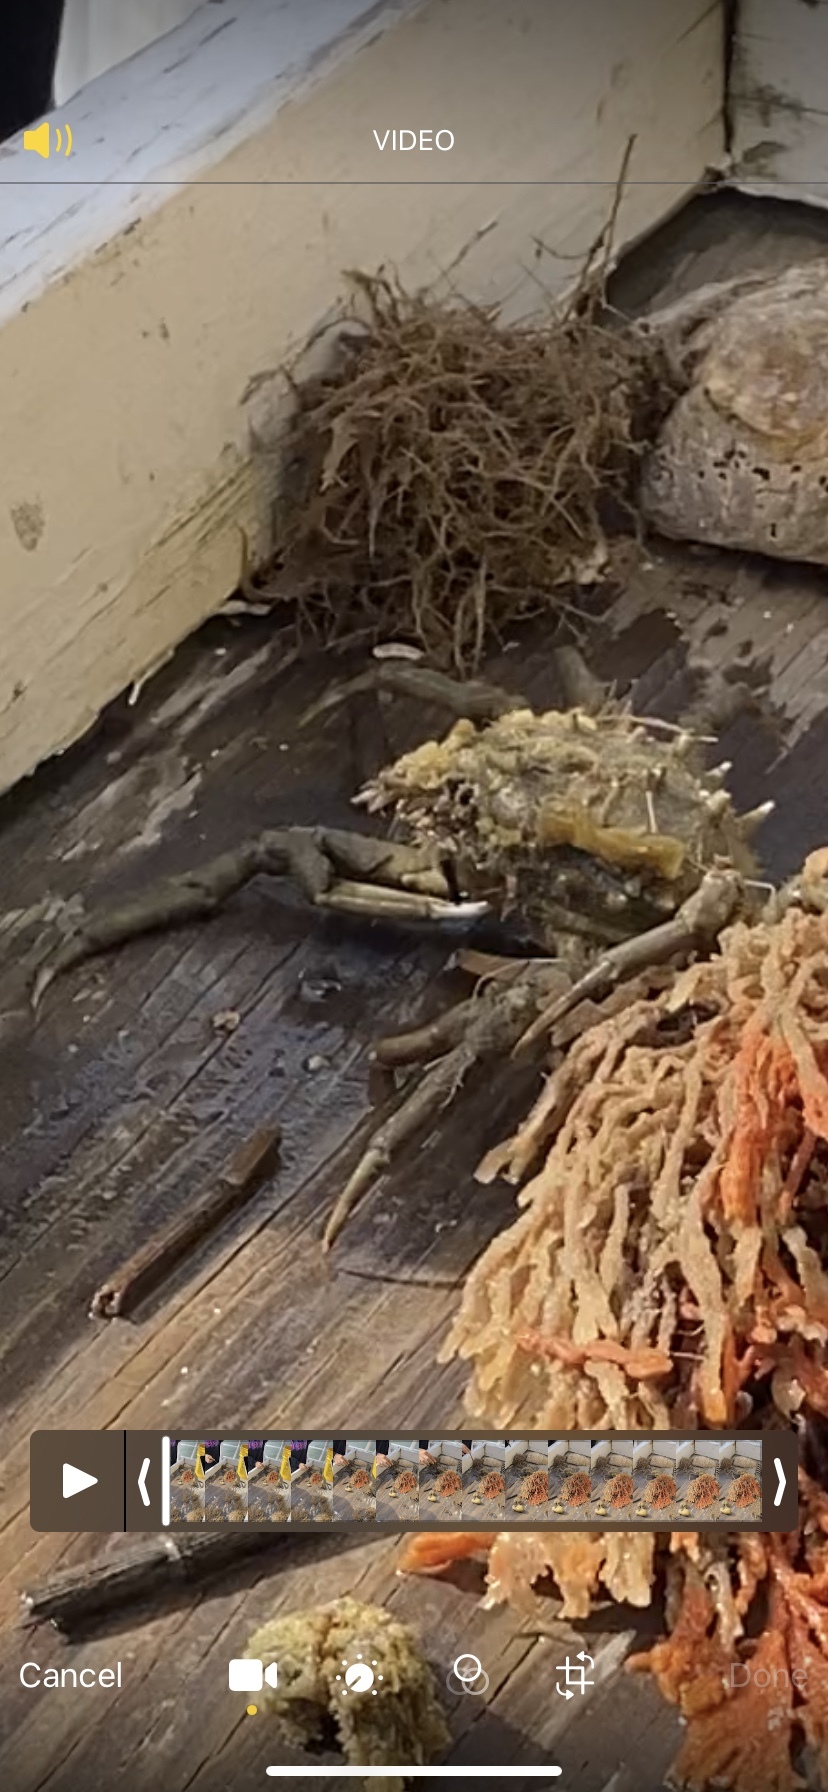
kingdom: Animalia
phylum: Arthropoda
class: Malacostraca
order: Decapoda
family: Epialtidae
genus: Libinia
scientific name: Libinia emarginata
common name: Common spider crab
